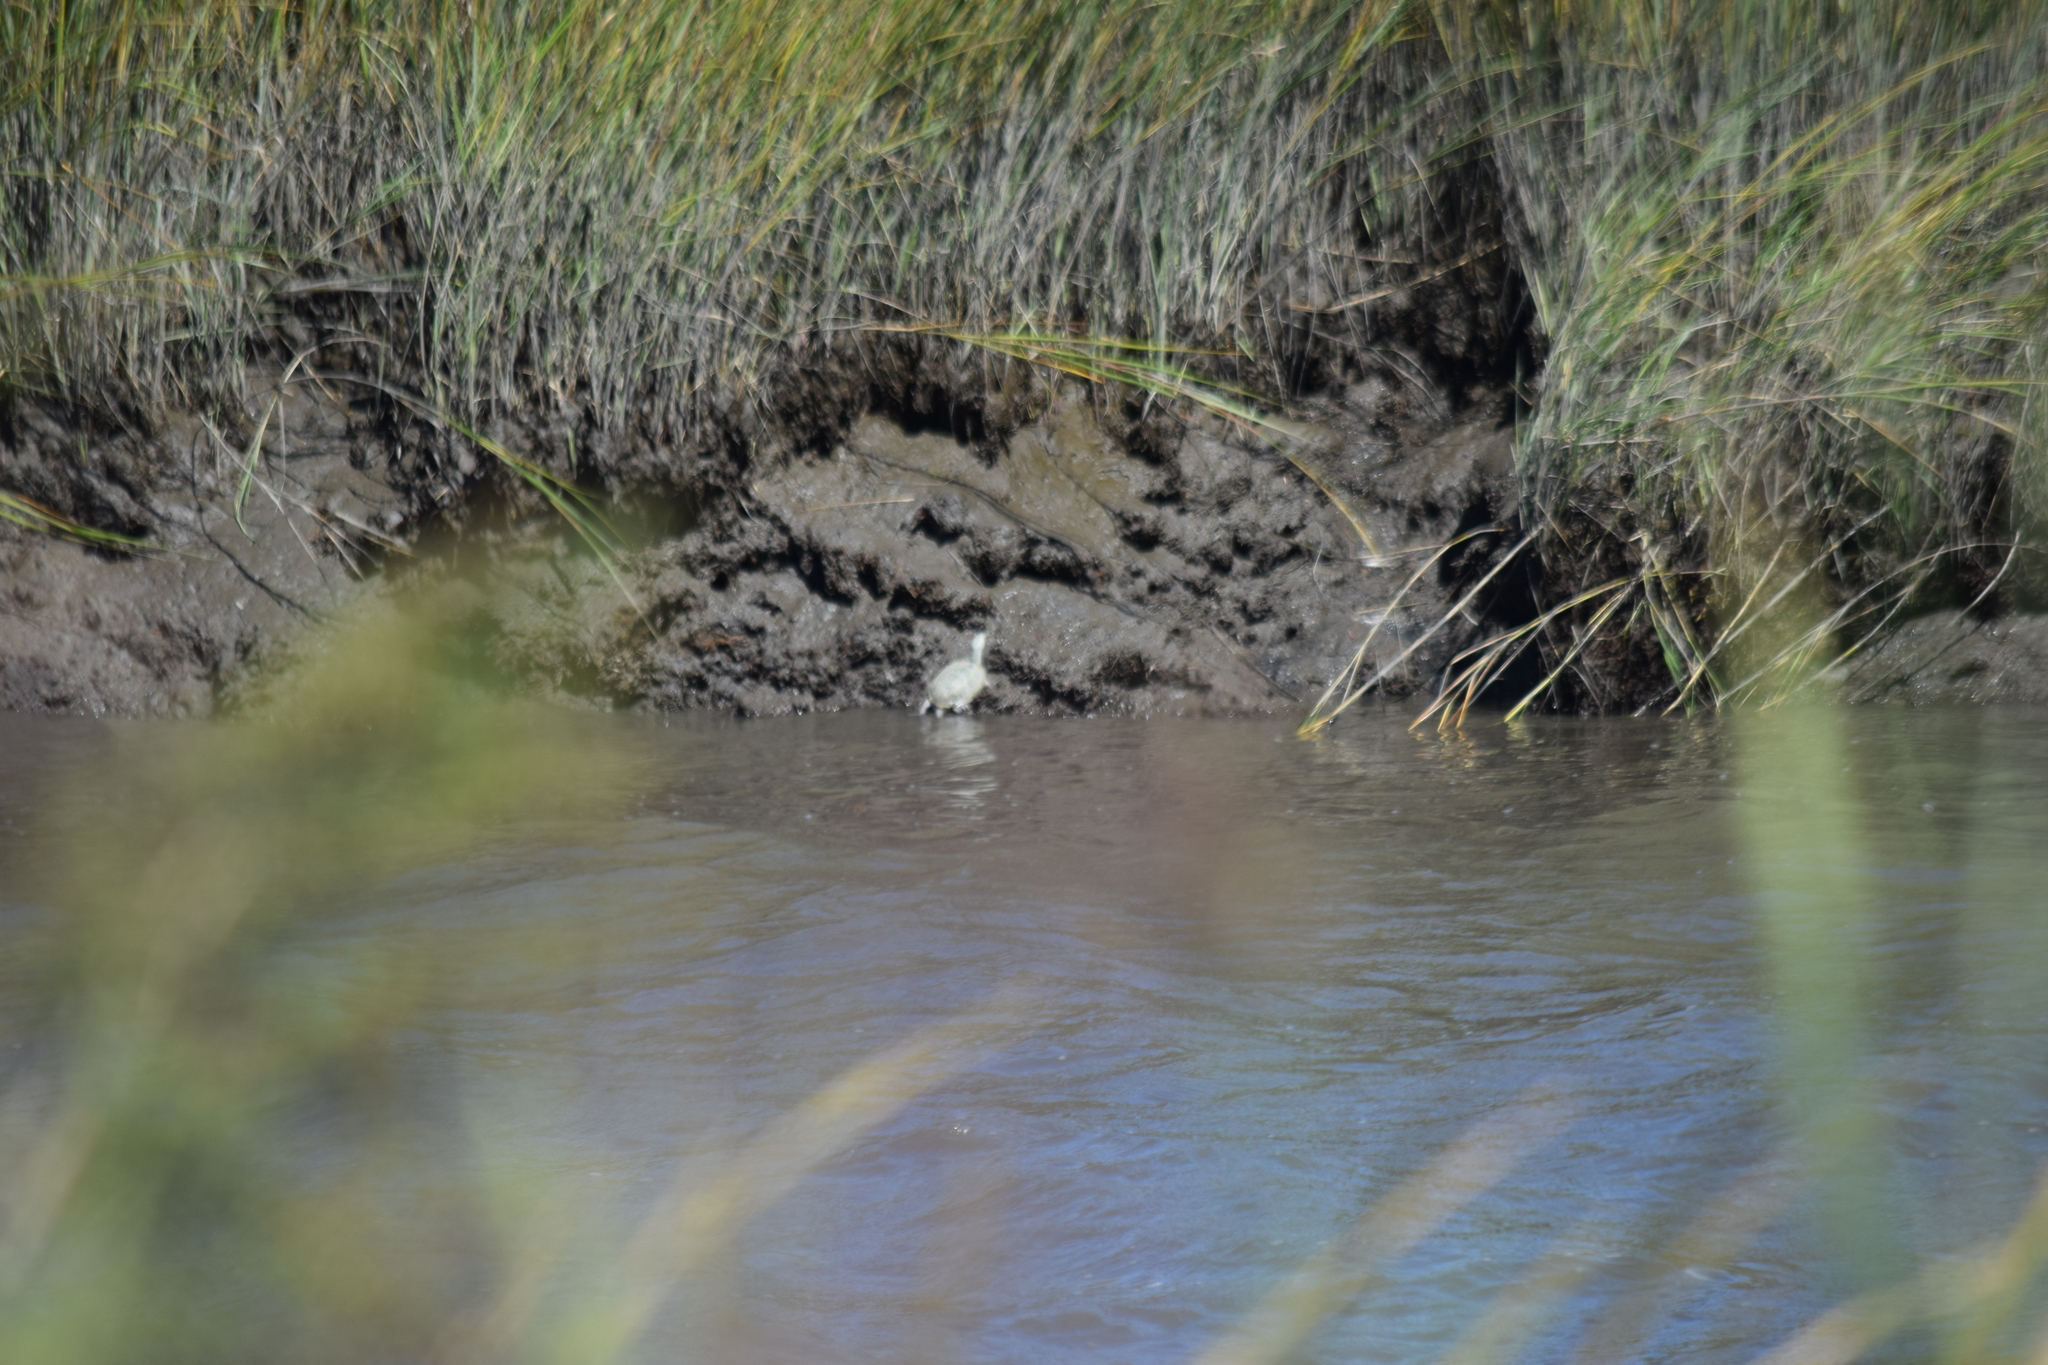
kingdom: Animalia
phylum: Chordata
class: Testudines
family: Emydidae
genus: Malaclemys
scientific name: Malaclemys terrapin
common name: Diamondback terrapin
